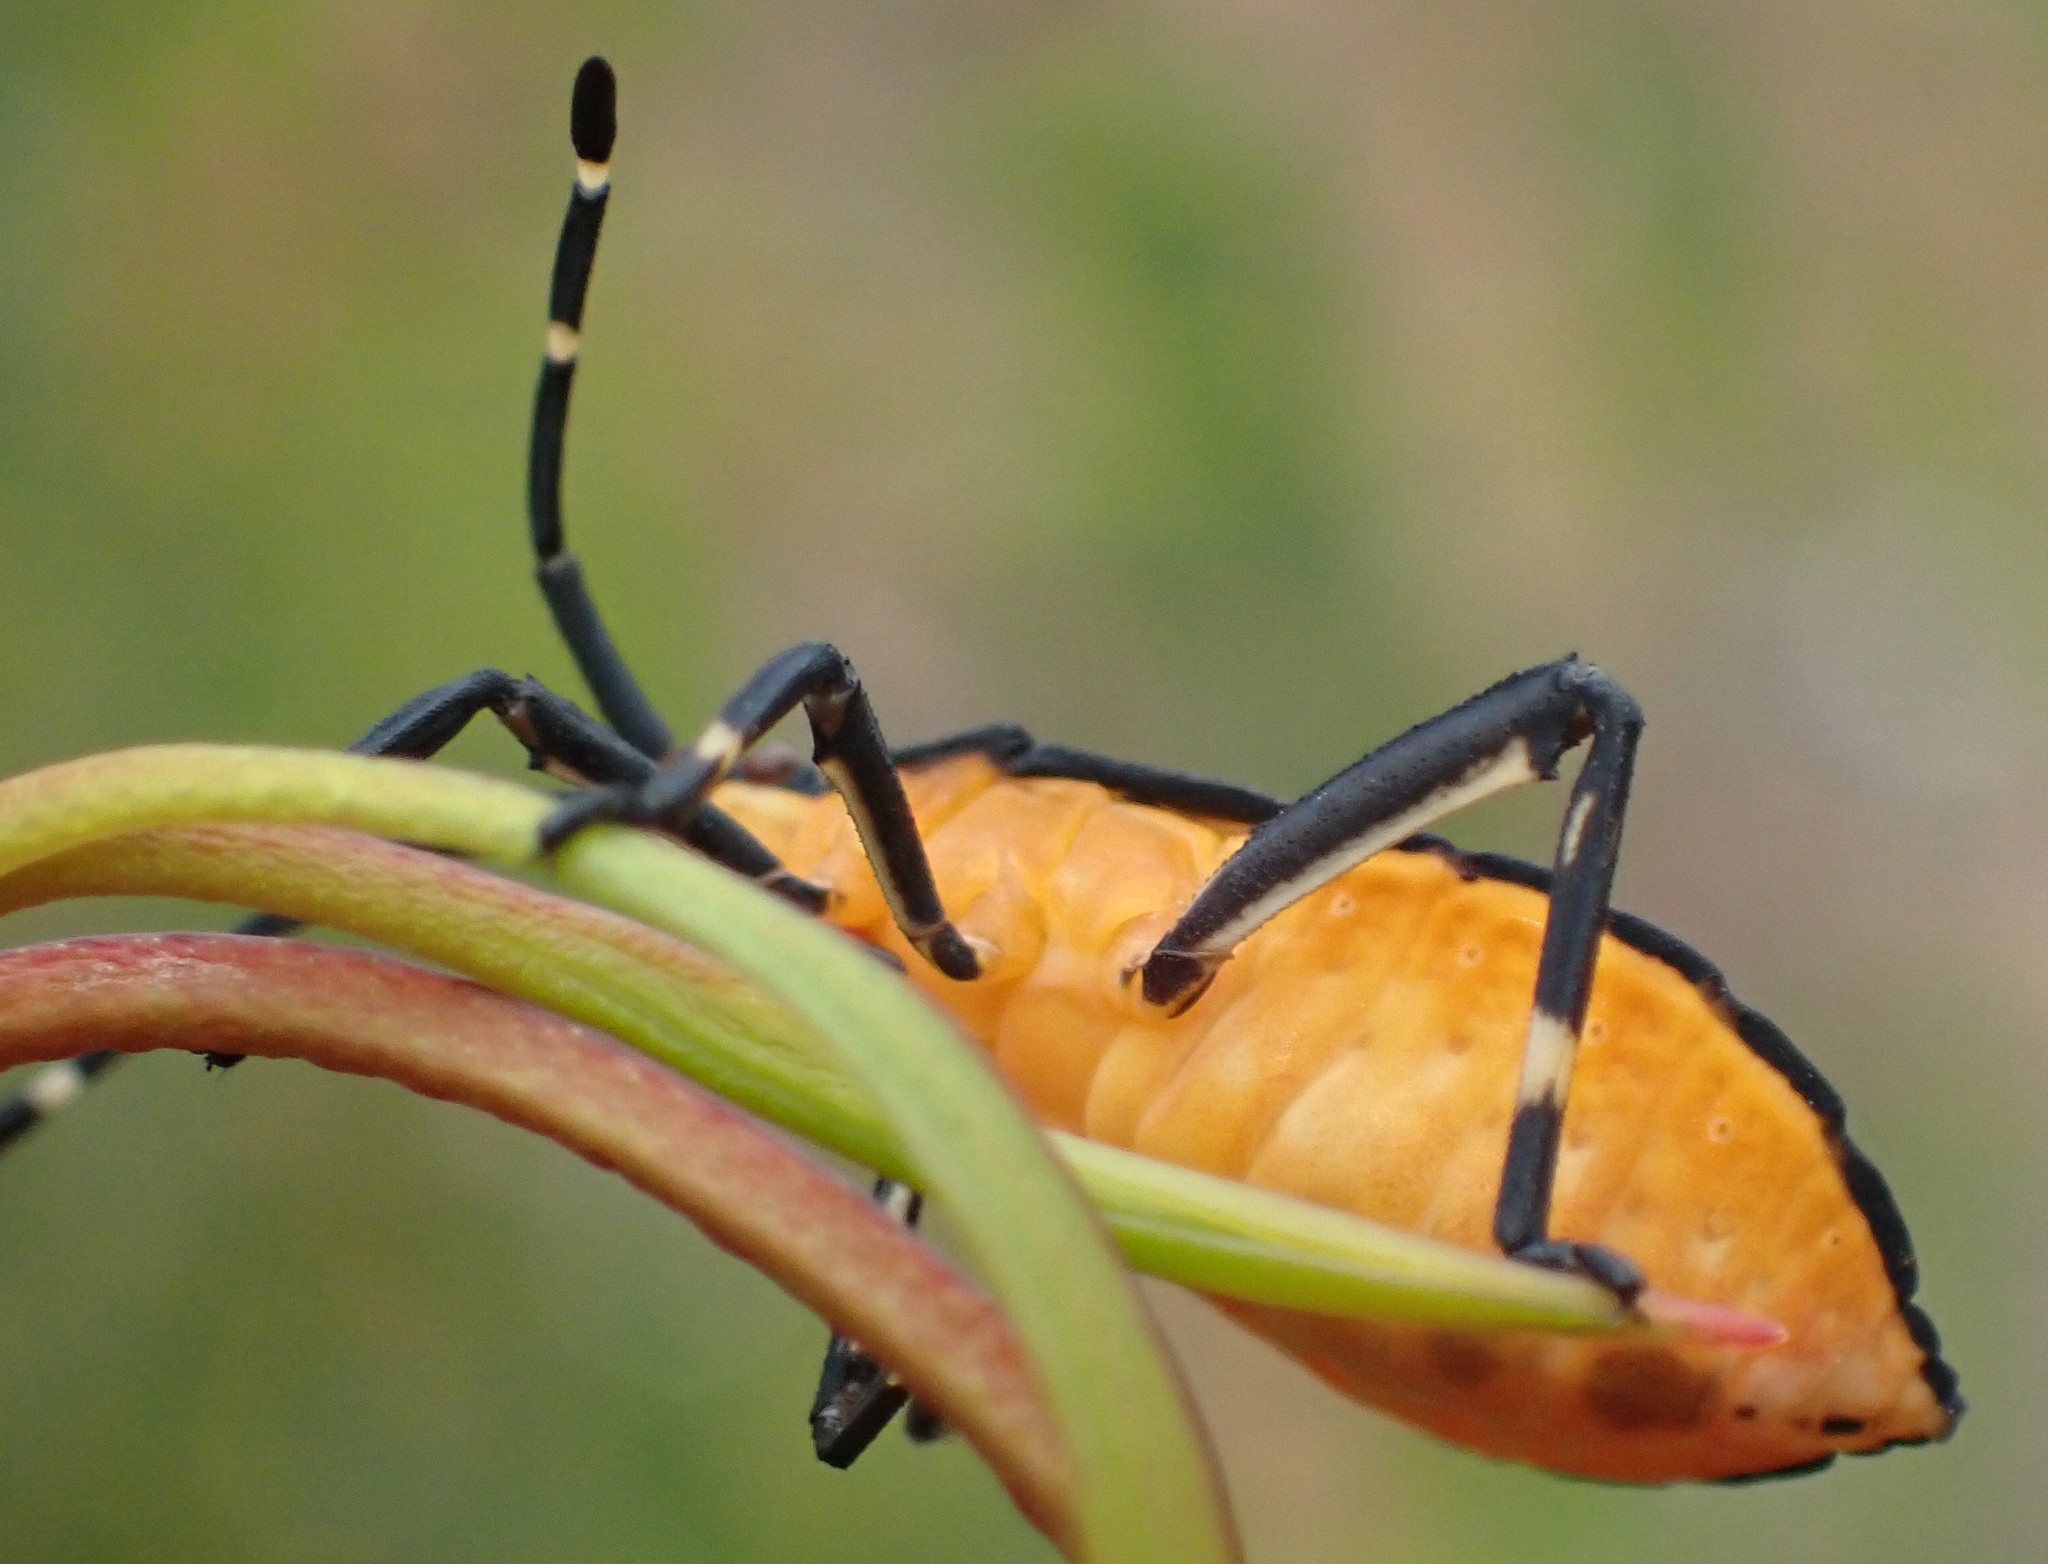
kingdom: Animalia
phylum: Arthropoda
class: Insecta
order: Hemiptera
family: Coreidae
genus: Amorbus
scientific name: Amorbus obscuricornis
